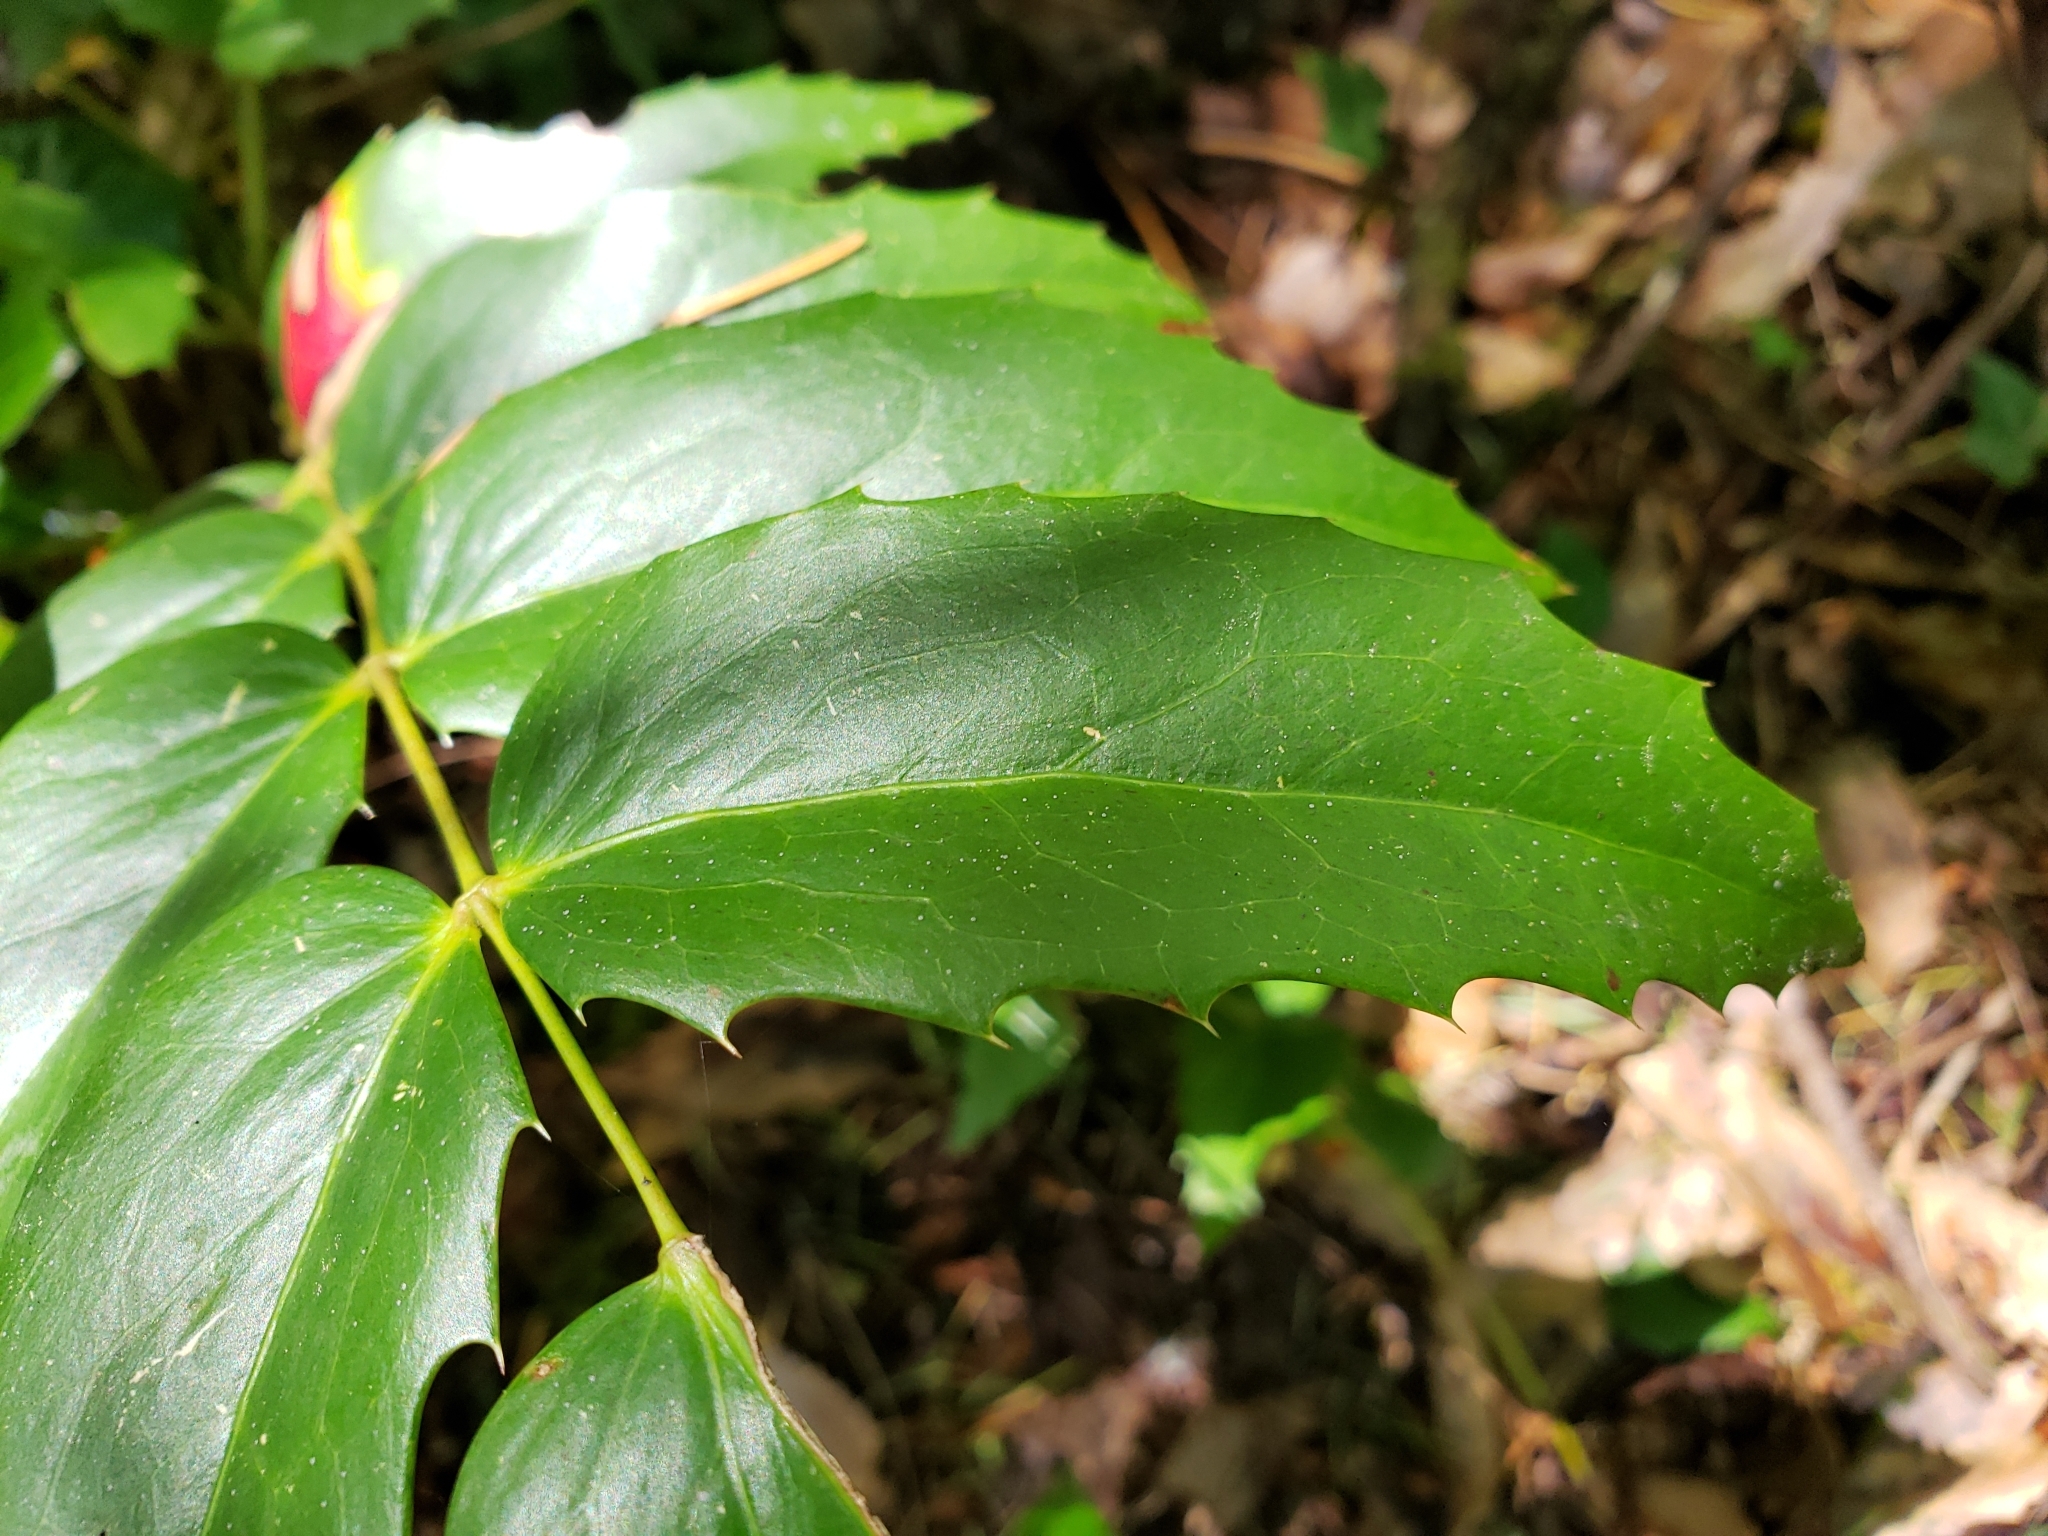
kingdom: Plantae
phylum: Tracheophyta
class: Magnoliopsida
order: Ranunculales
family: Berberidaceae
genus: Mahonia
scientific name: Mahonia nervosa
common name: Cascade oregon-grape
